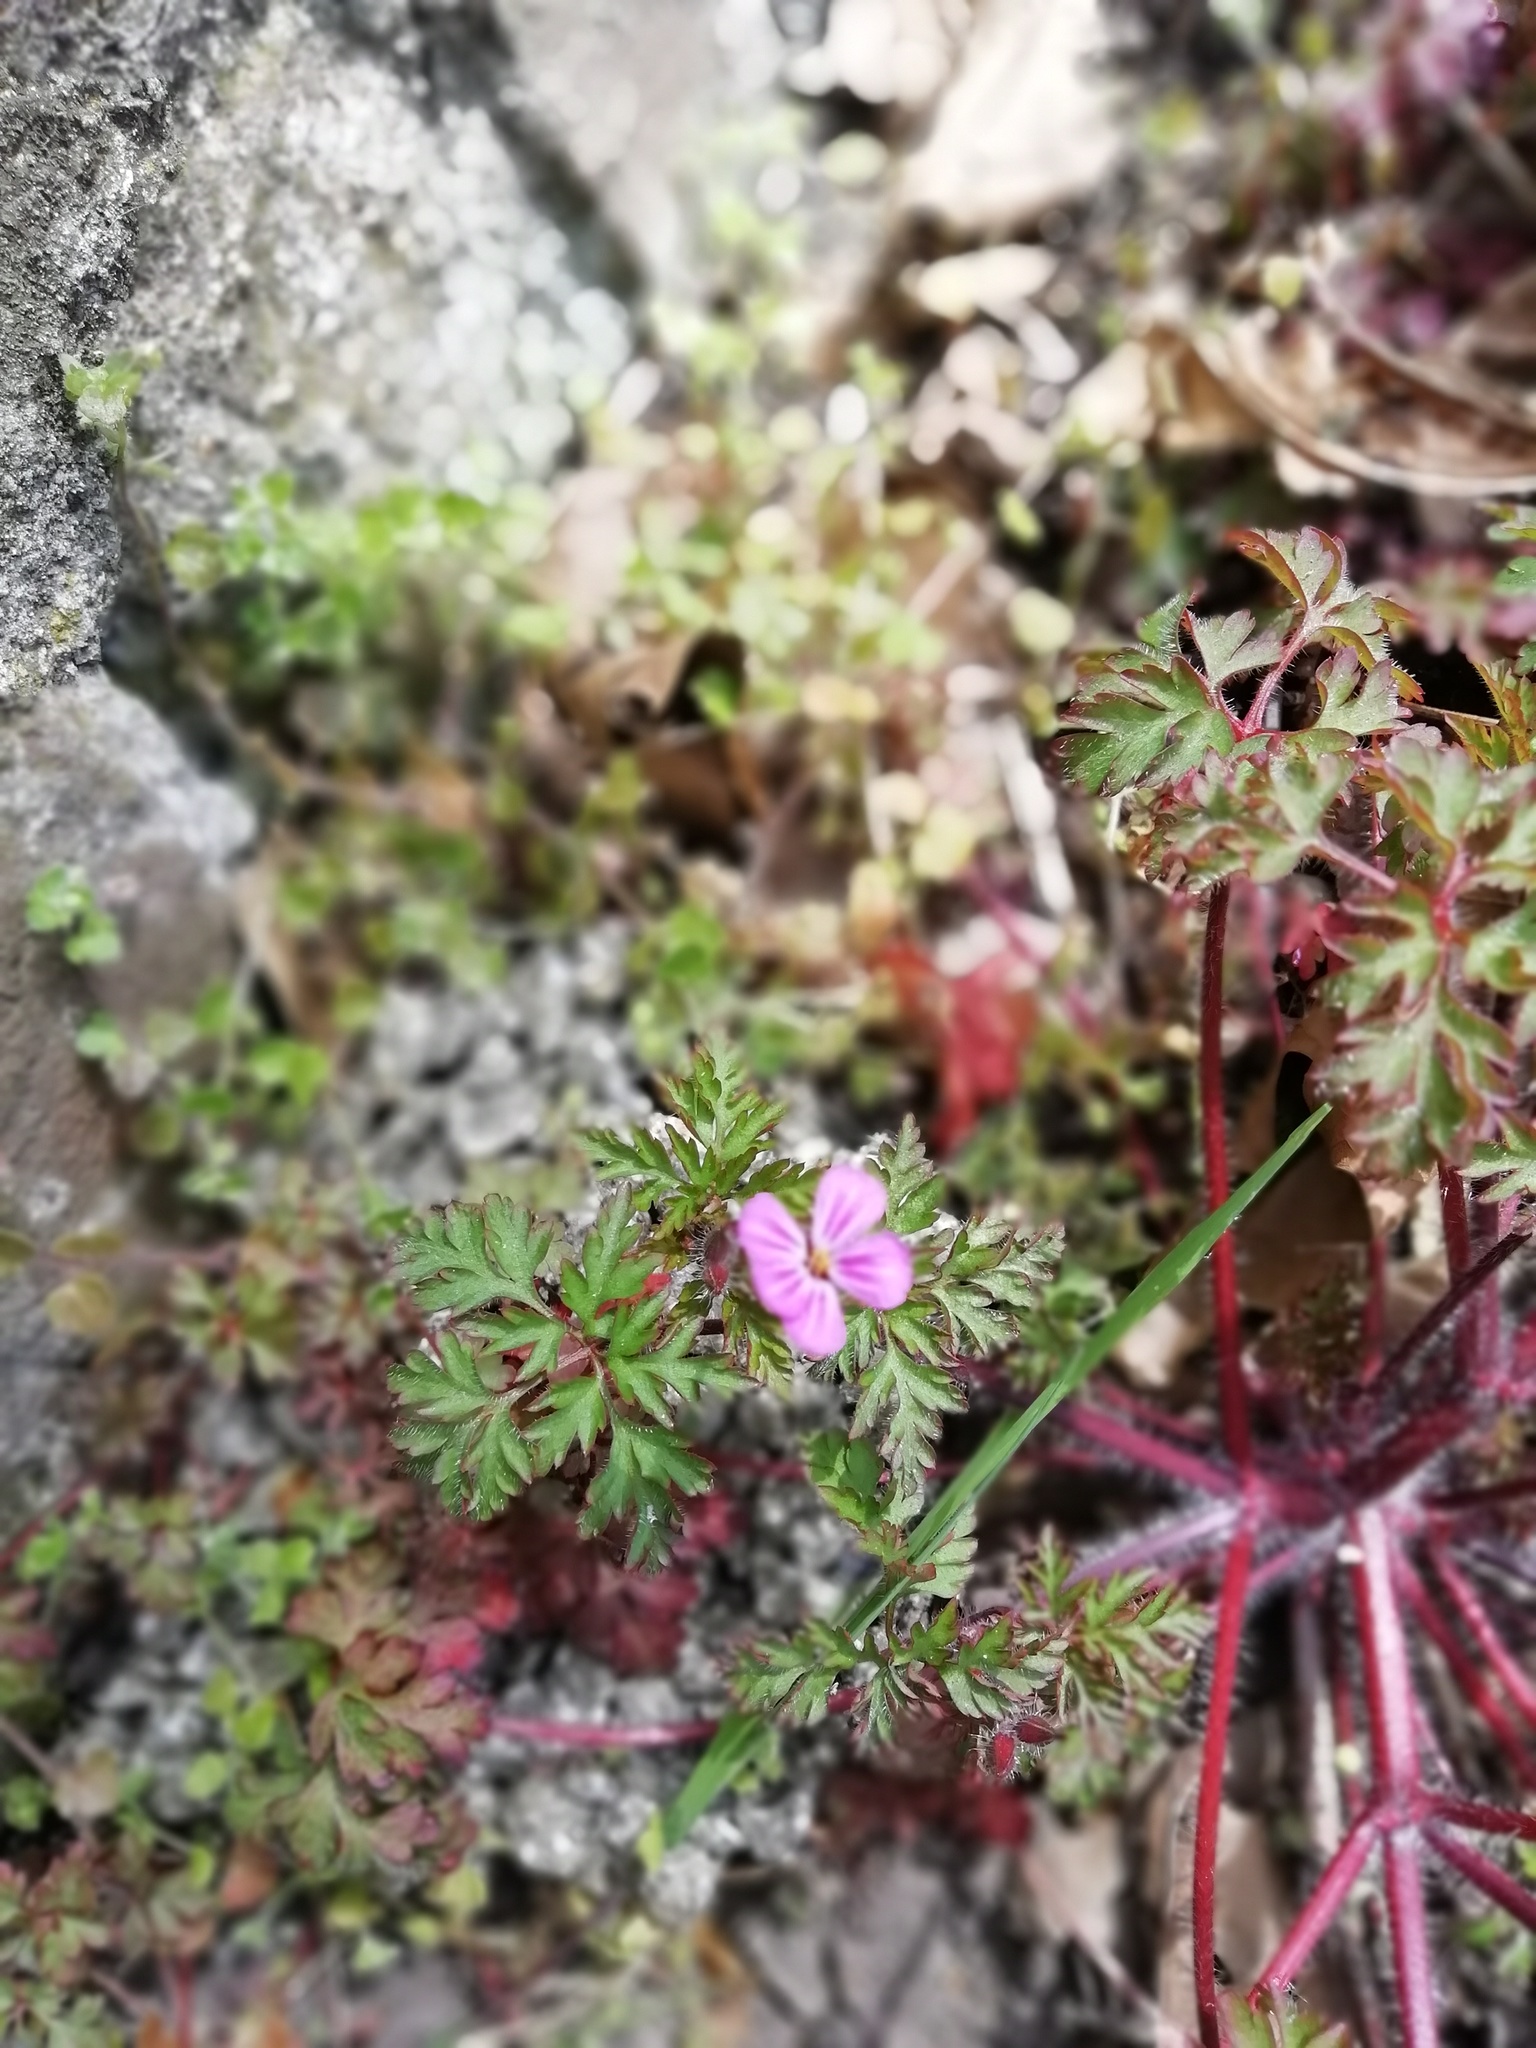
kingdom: Plantae
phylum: Tracheophyta
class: Magnoliopsida
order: Geraniales
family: Geraniaceae
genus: Geranium
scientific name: Geranium robertianum
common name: Herb-robert
